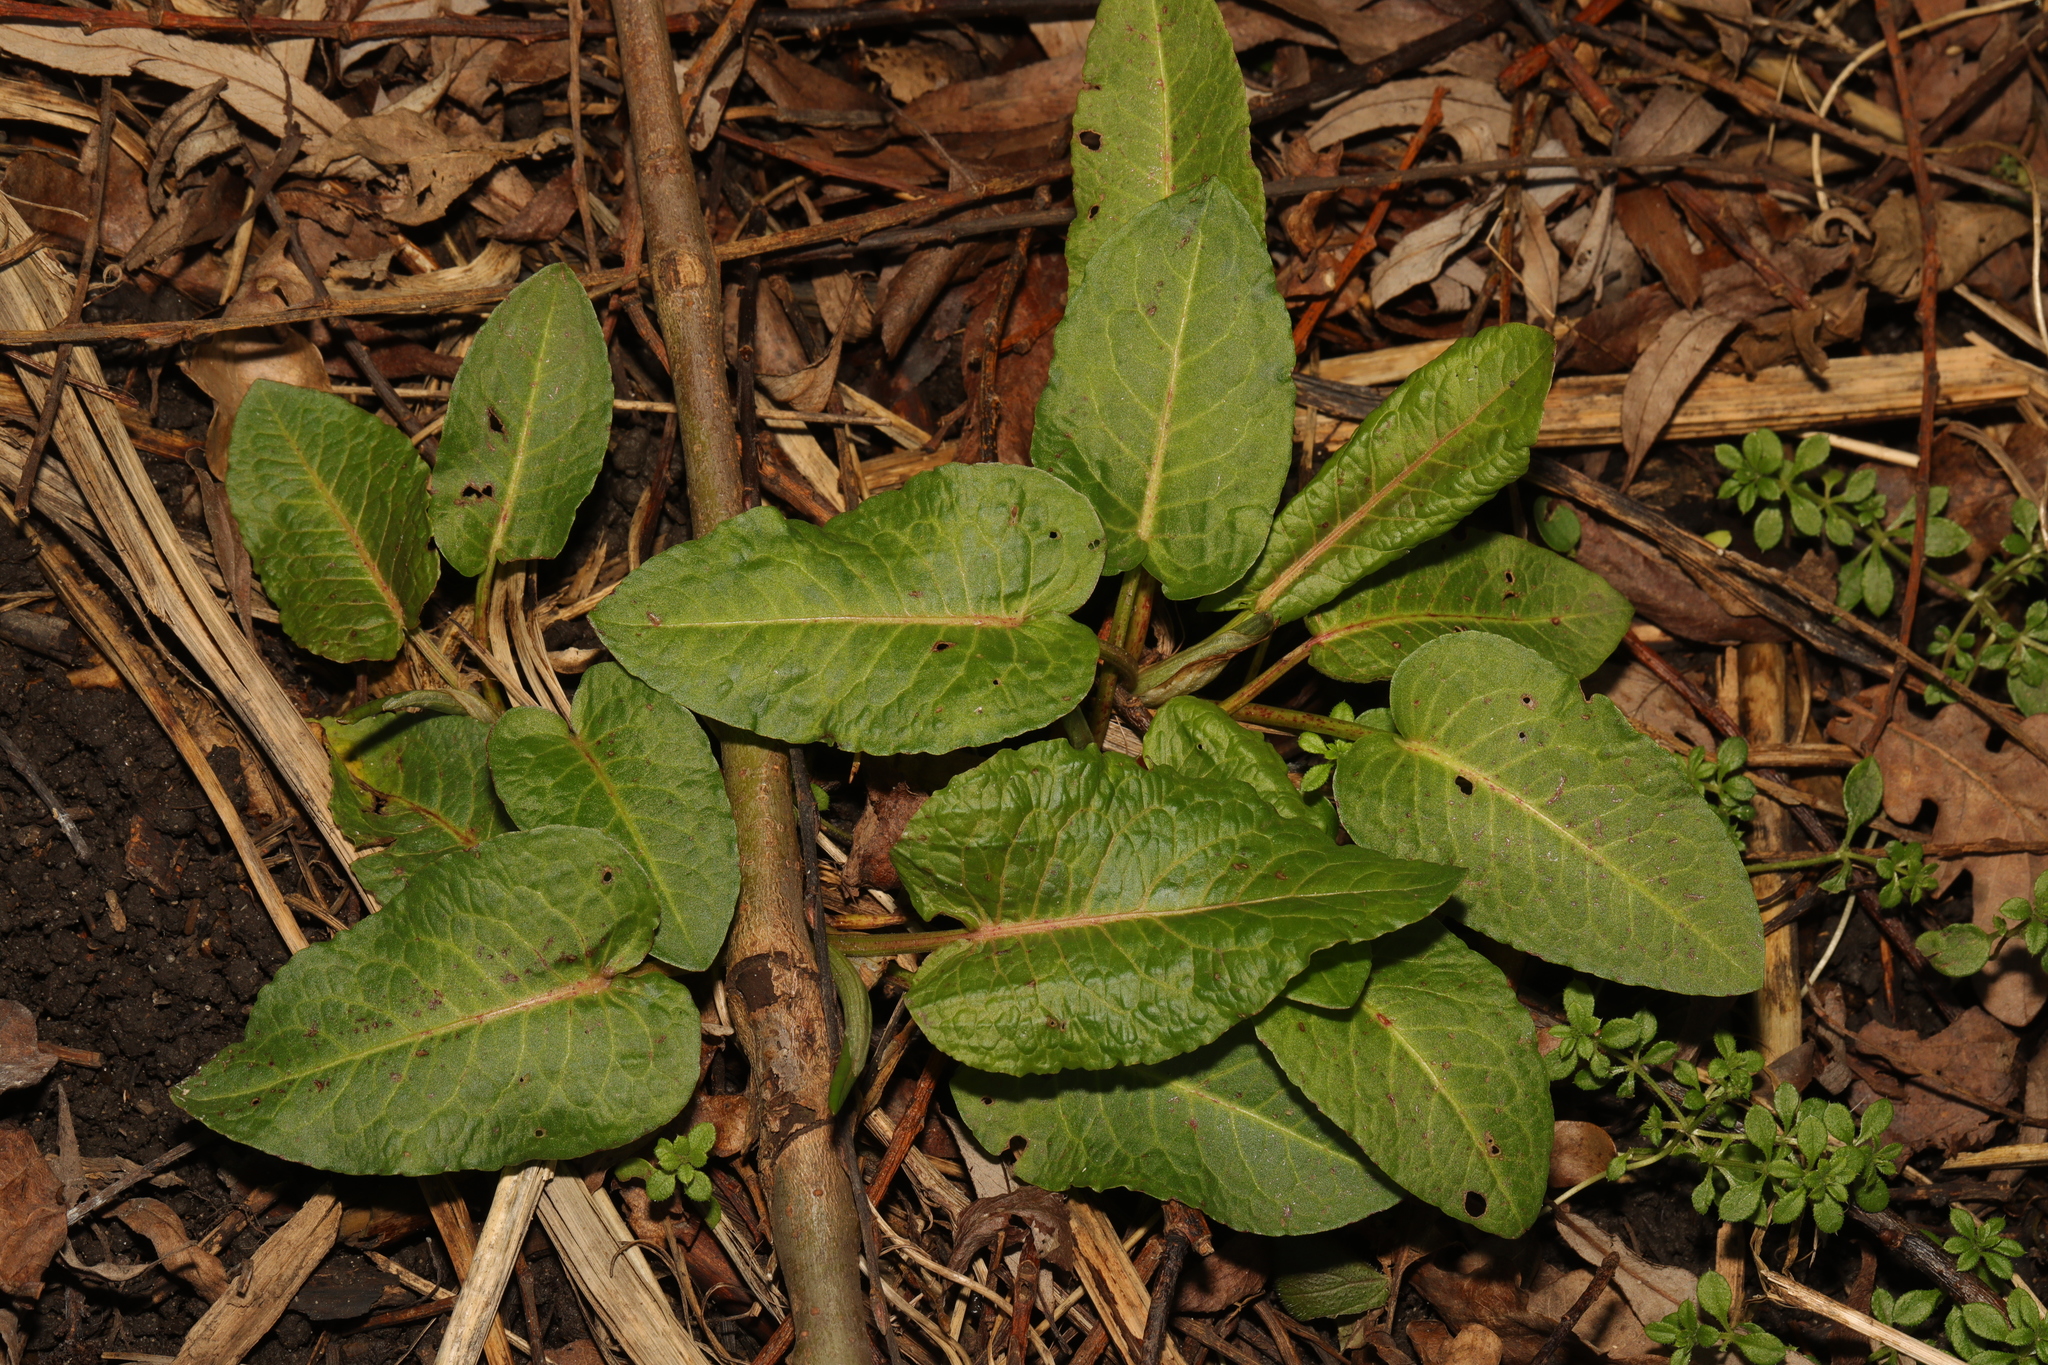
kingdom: Plantae
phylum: Tracheophyta
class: Magnoliopsida
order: Caryophyllales
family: Polygonaceae
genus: Rumex
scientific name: Rumex obtusifolius
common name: Bitter dock
